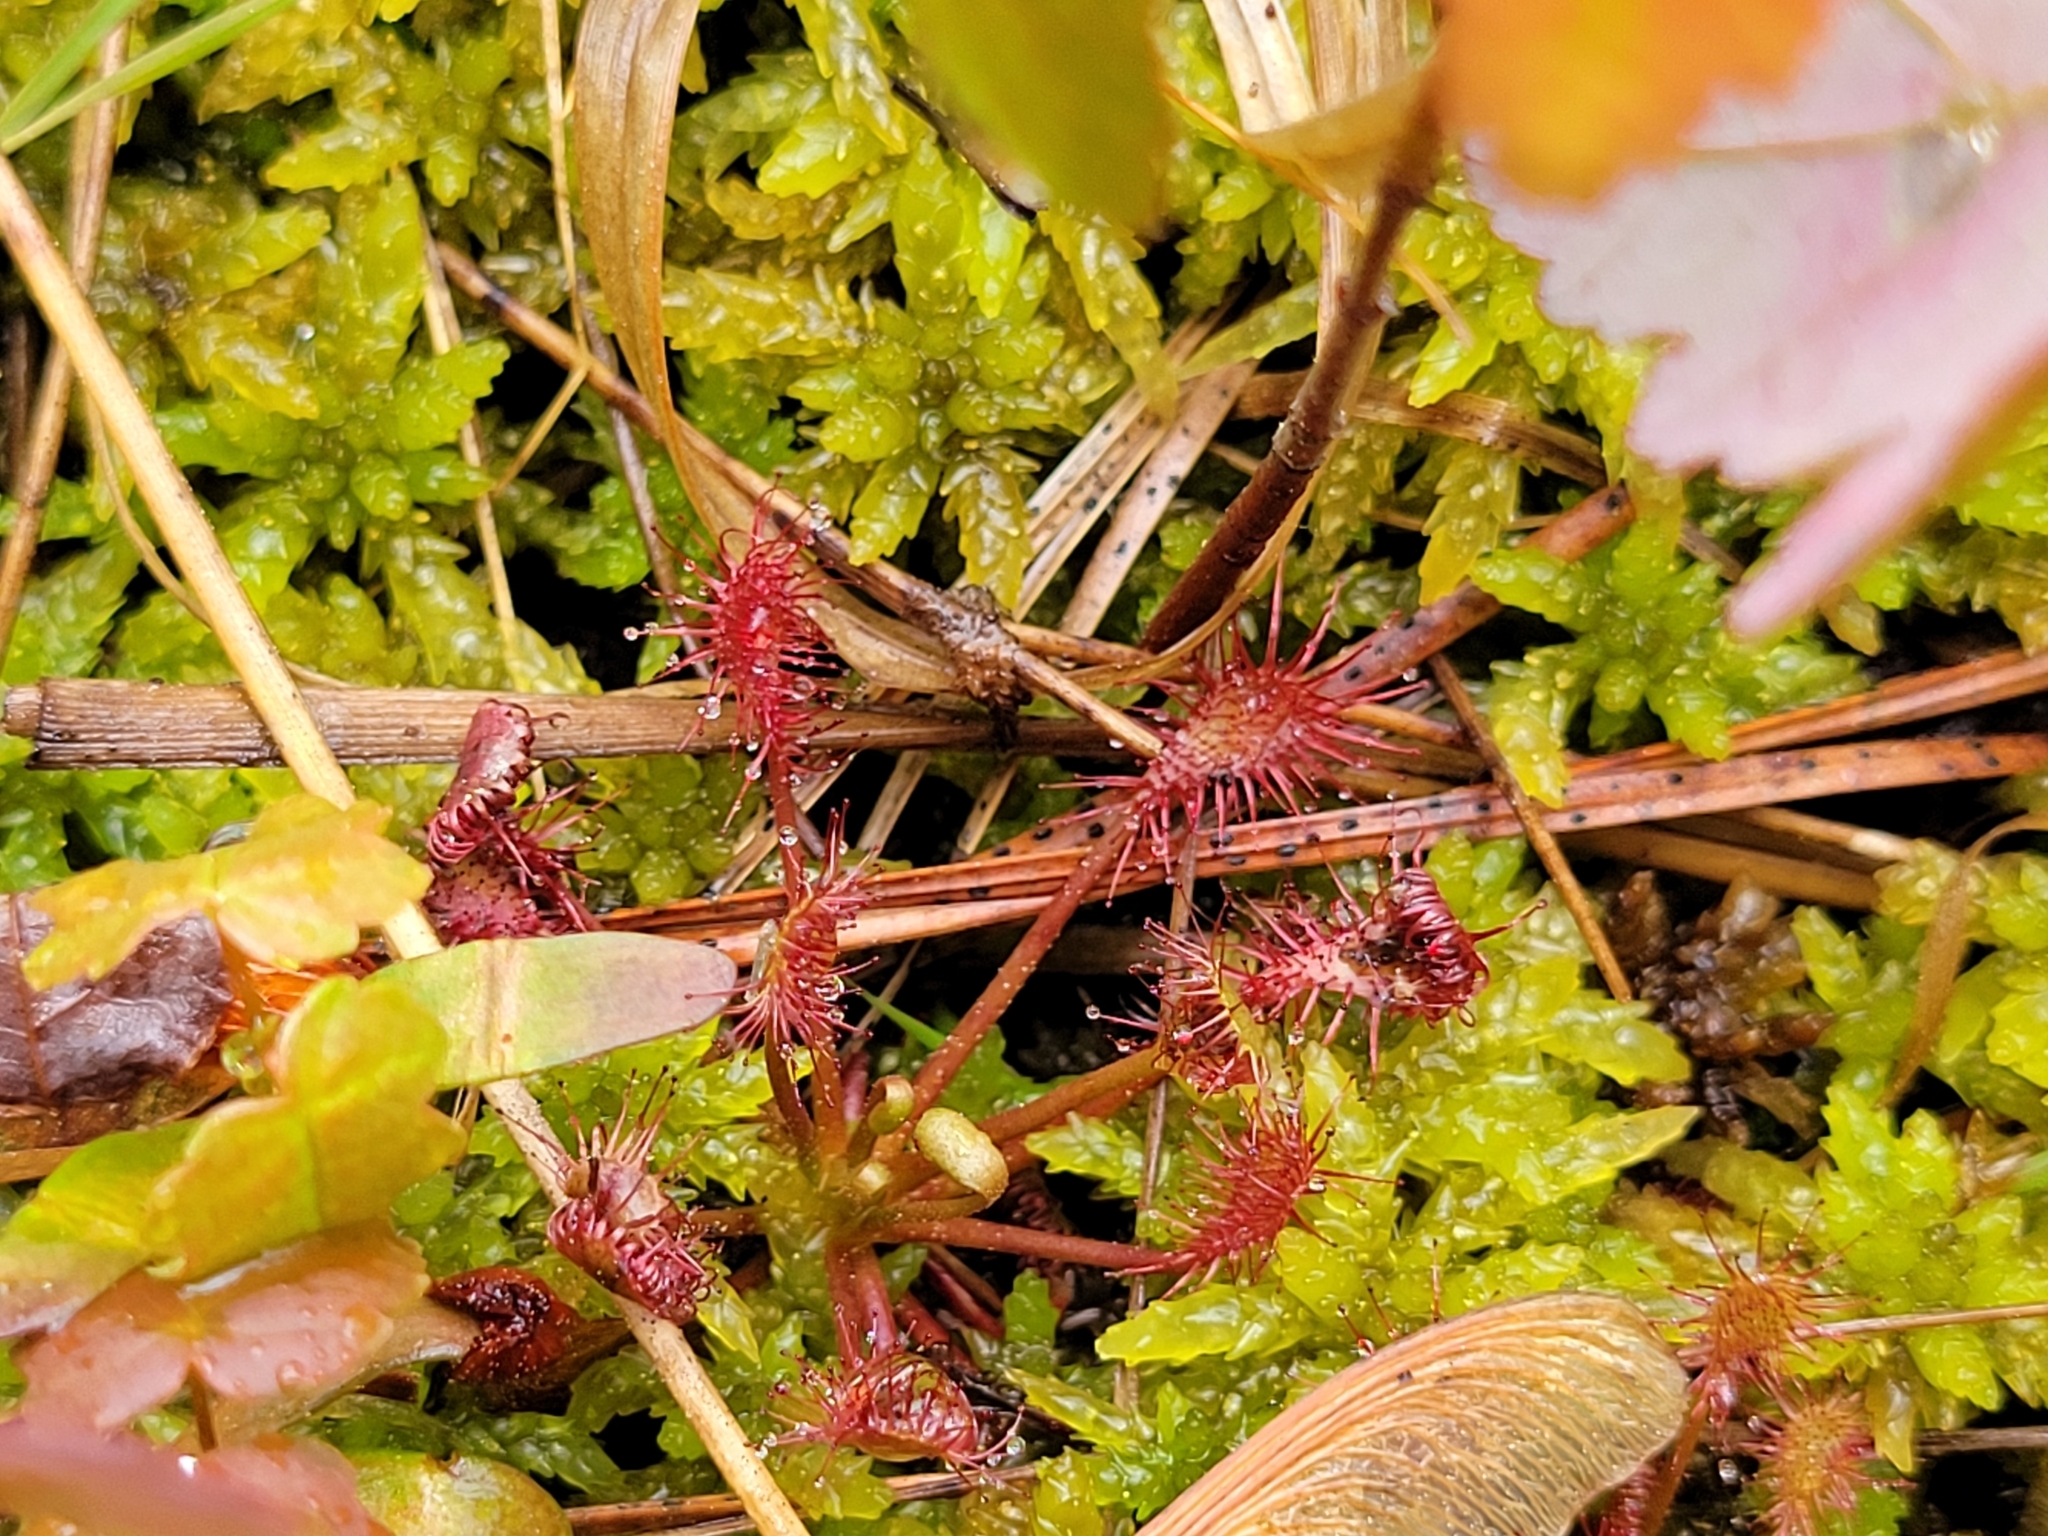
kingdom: Plantae
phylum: Tracheophyta
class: Magnoliopsida
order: Caryophyllales
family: Droseraceae
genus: Drosera
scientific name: Drosera intermedia
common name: Oblong-leaved sundew
